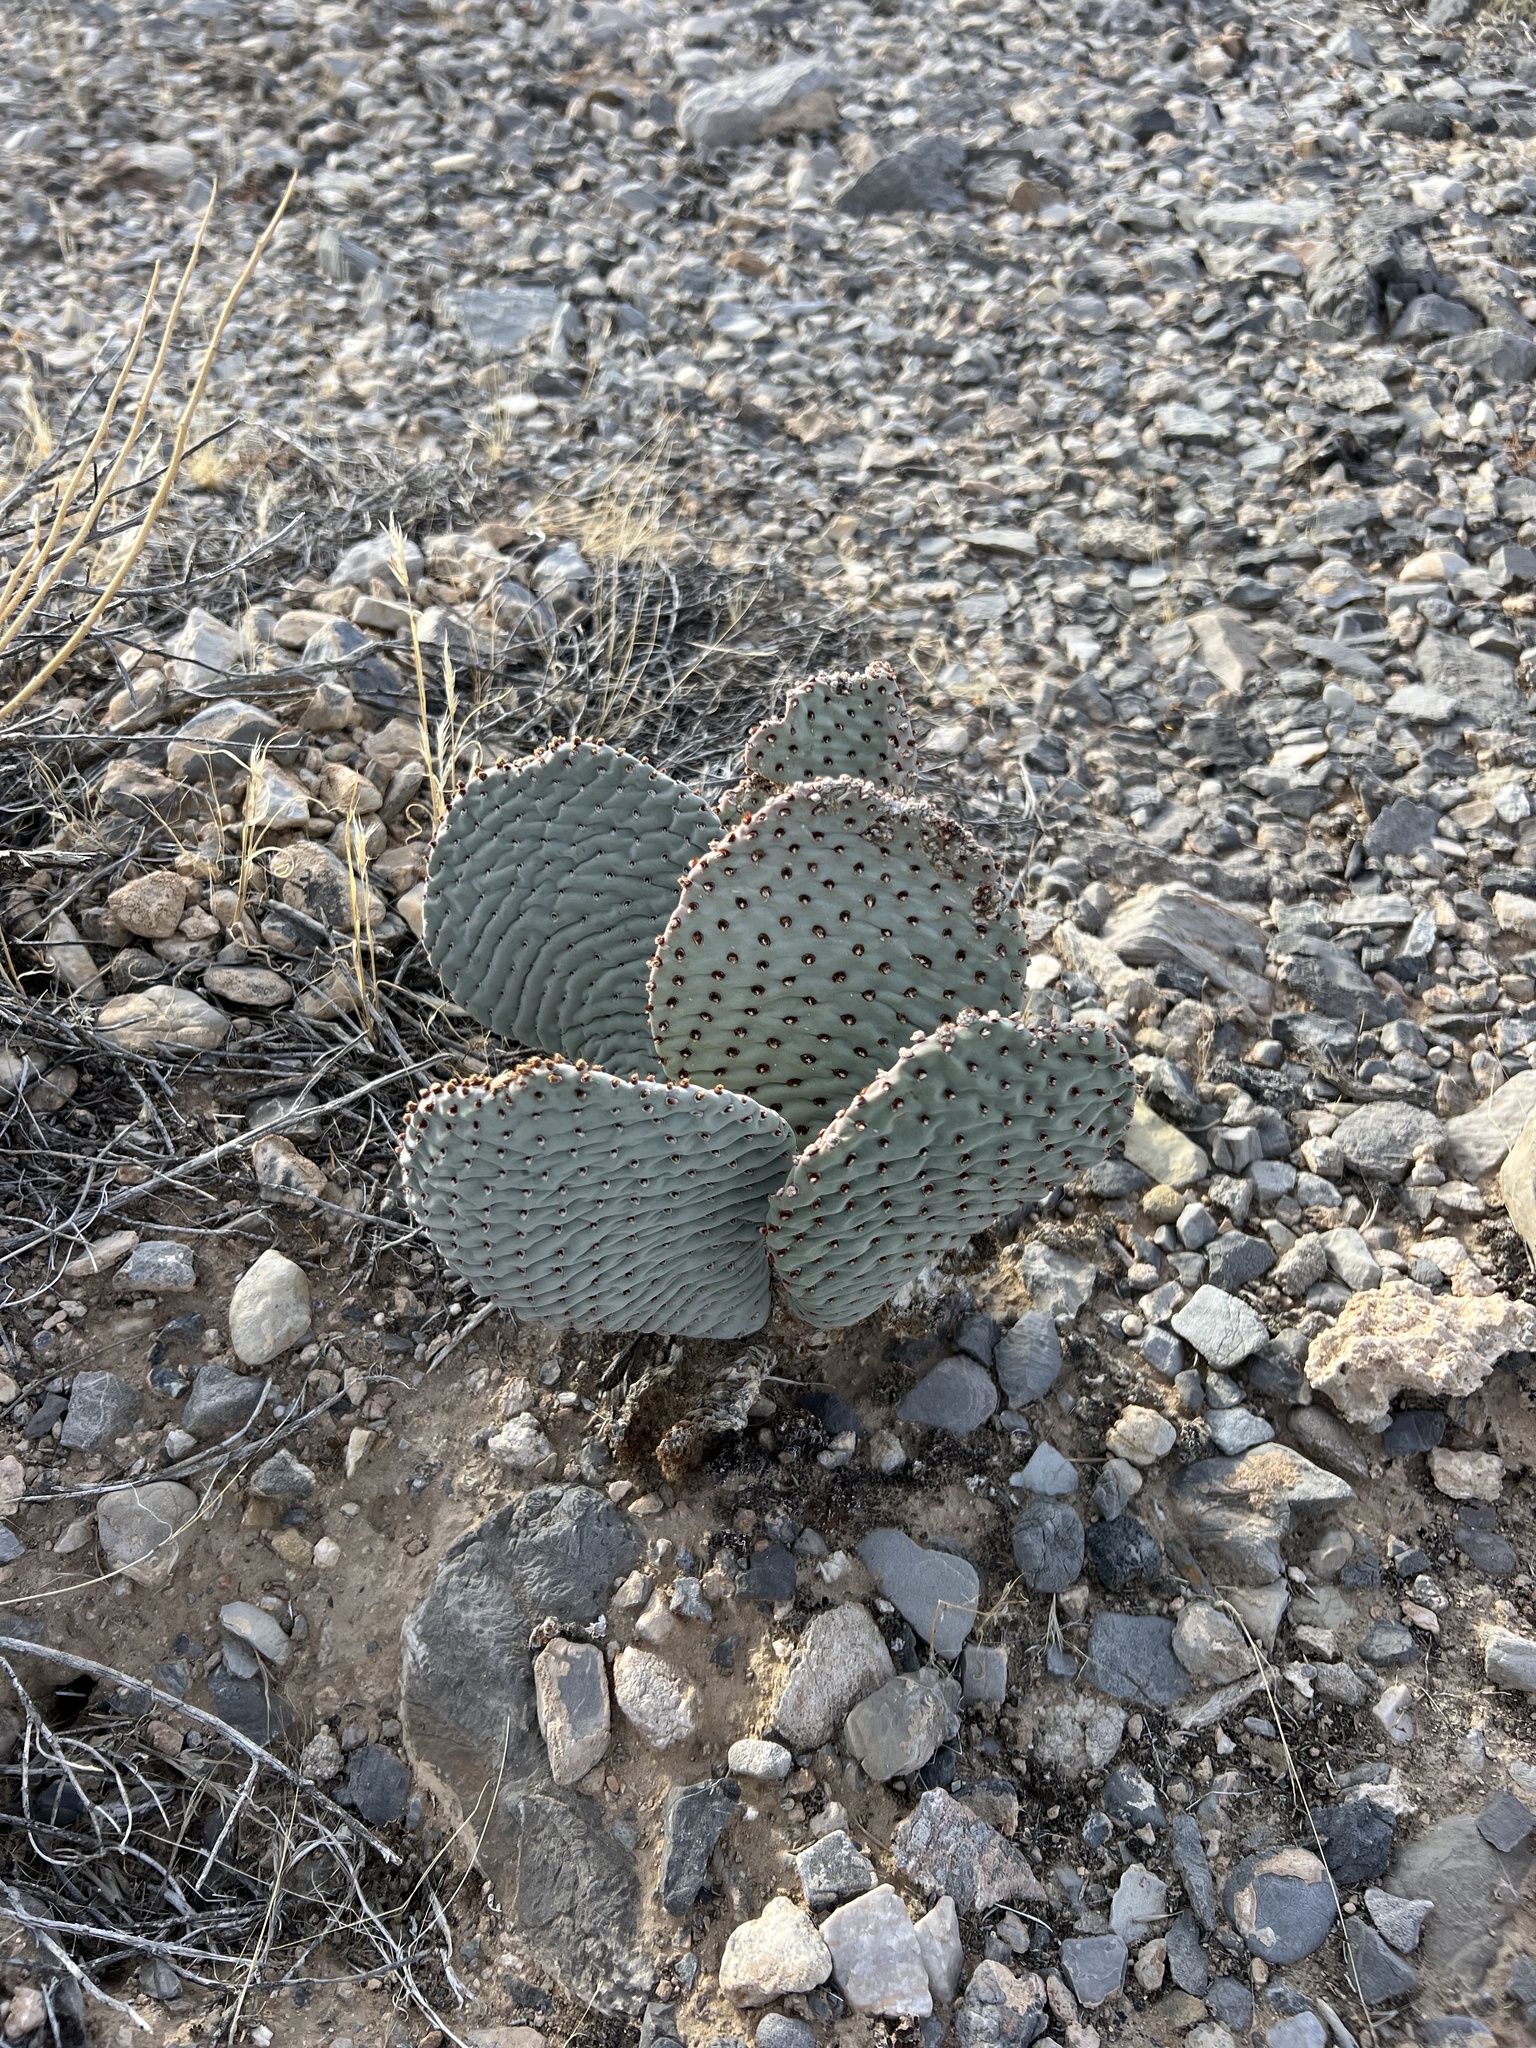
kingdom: Plantae
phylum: Tracheophyta
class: Magnoliopsida
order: Caryophyllales
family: Cactaceae
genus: Opuntia
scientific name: Opuntia basilaris
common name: Beavertail prickly-pear
